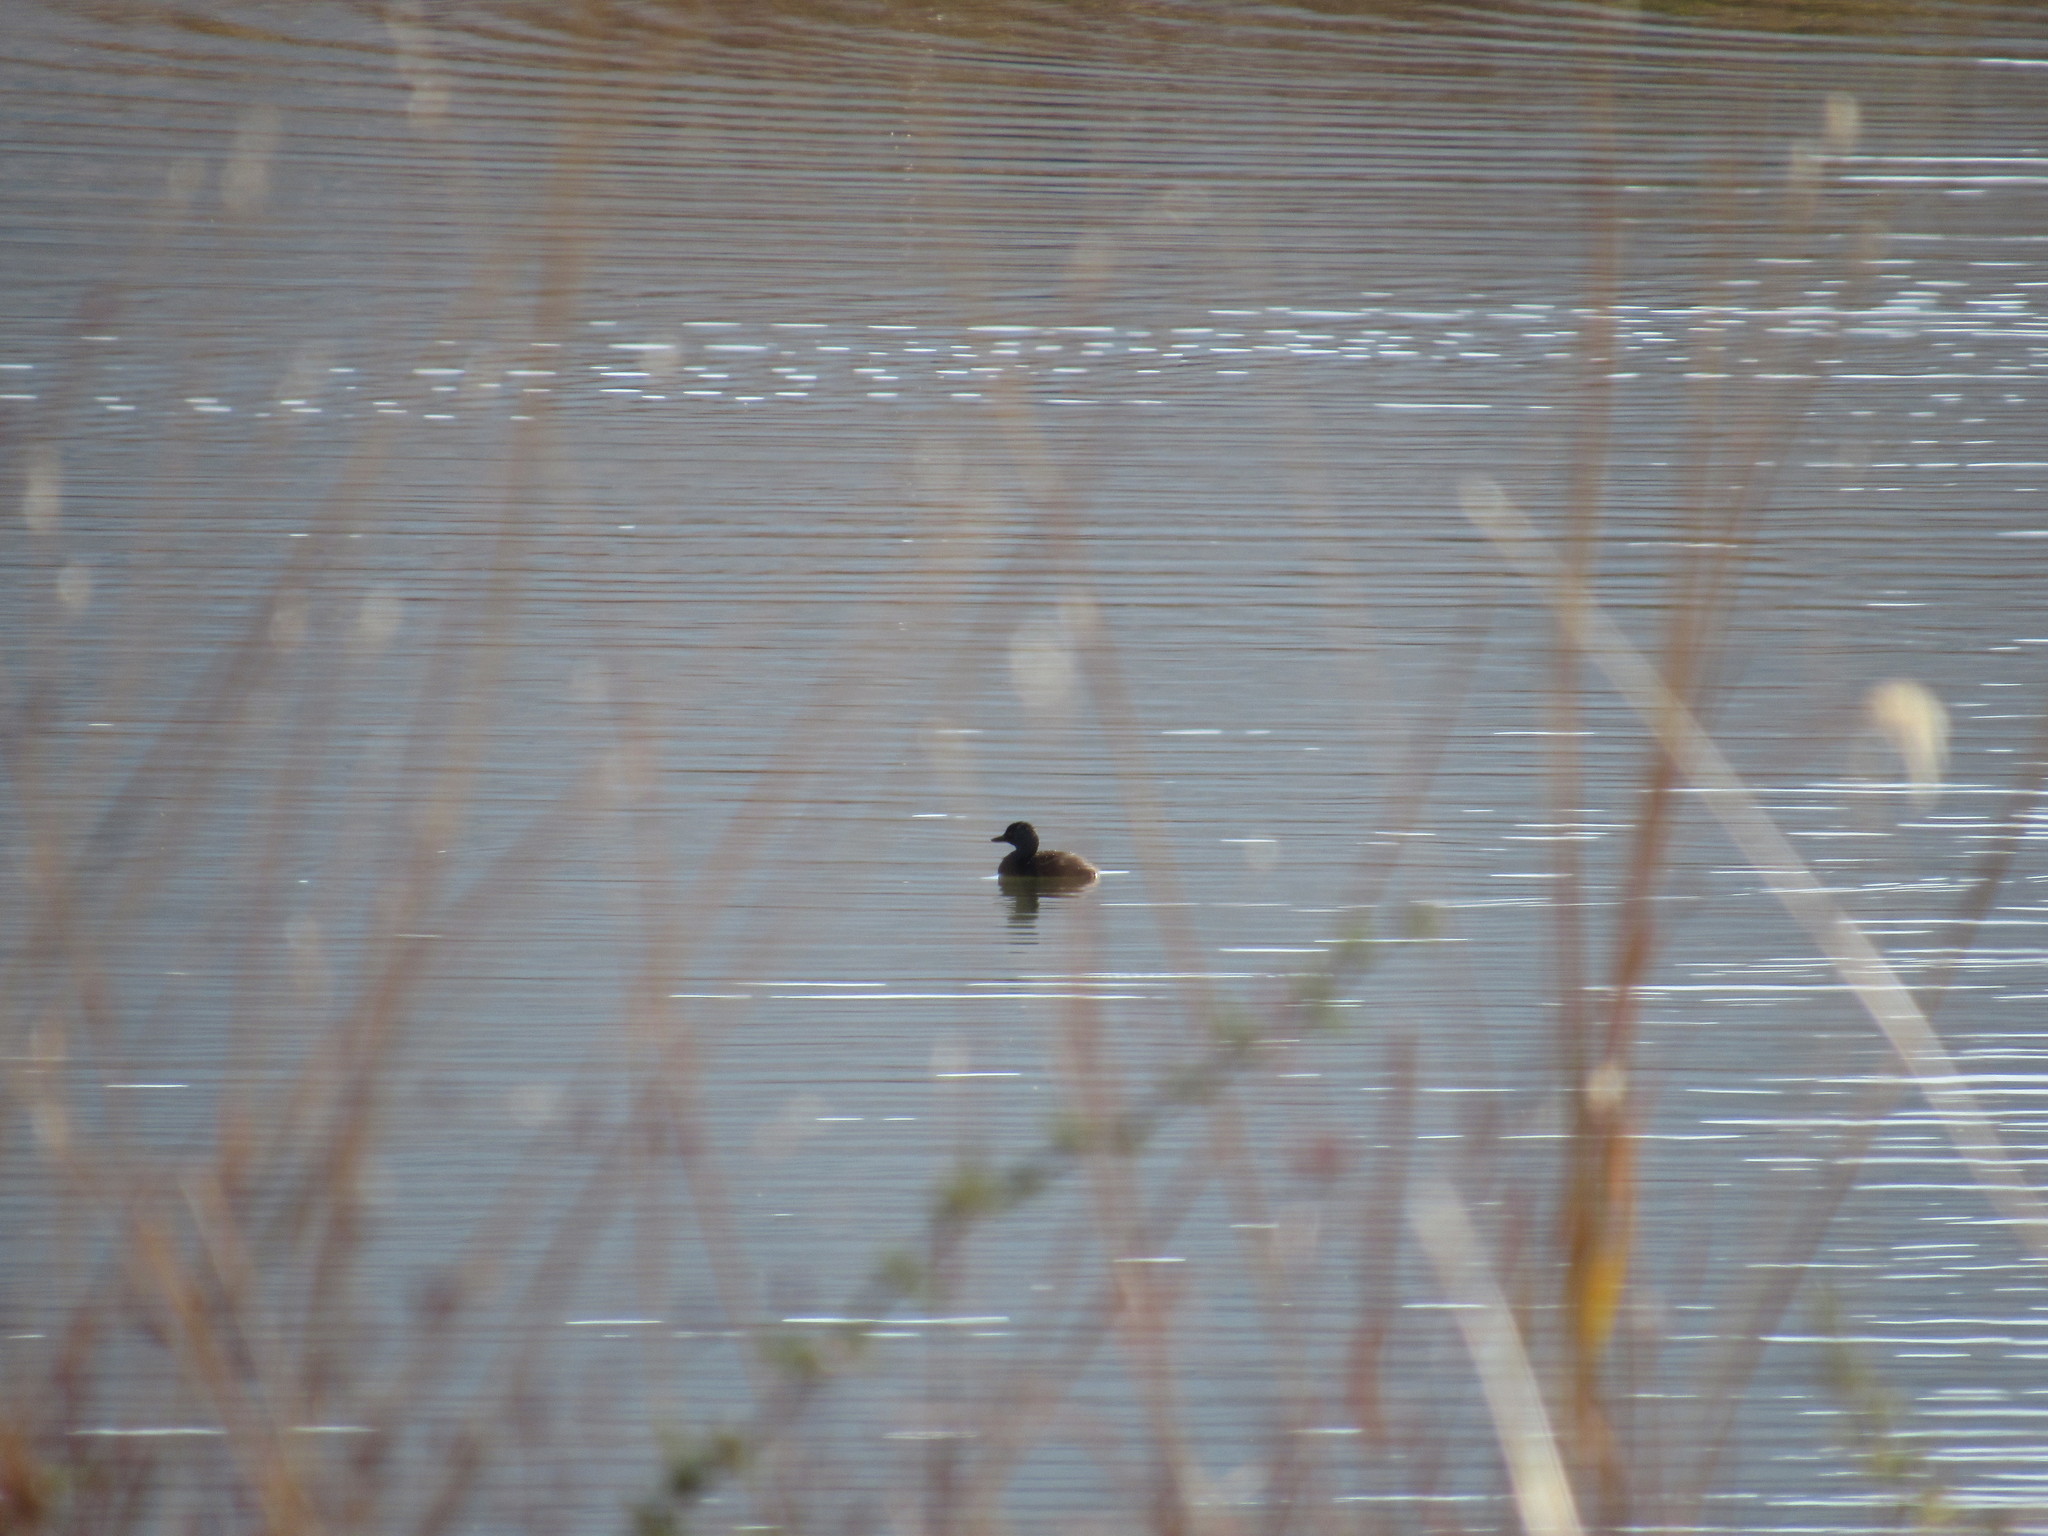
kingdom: Animalia
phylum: Chordata
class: Aves
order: Podicipediformes
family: Podicipedidae
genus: Tachybaptus
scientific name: Tachybaptus dominicus
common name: Least grebe
